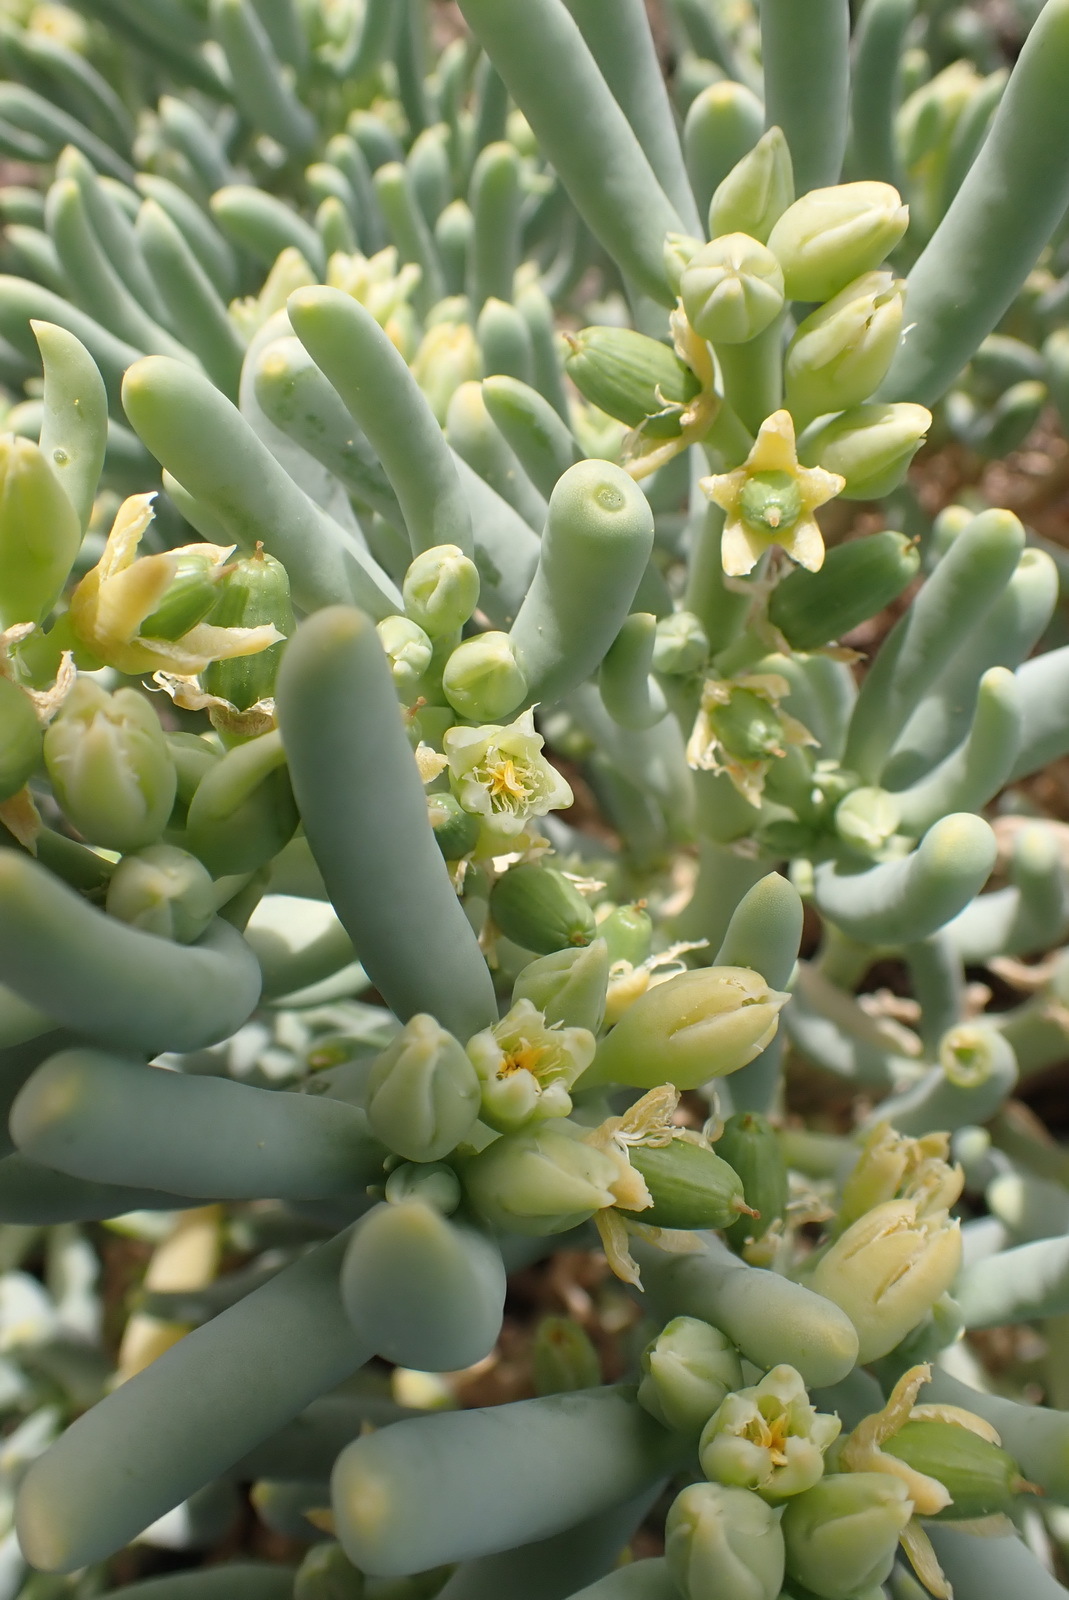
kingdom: Plantae
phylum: Tracheophyta
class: Magnoliopsida
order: Zygophyllales
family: Zygophyllaceae
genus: Augea
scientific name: Augea capensis
